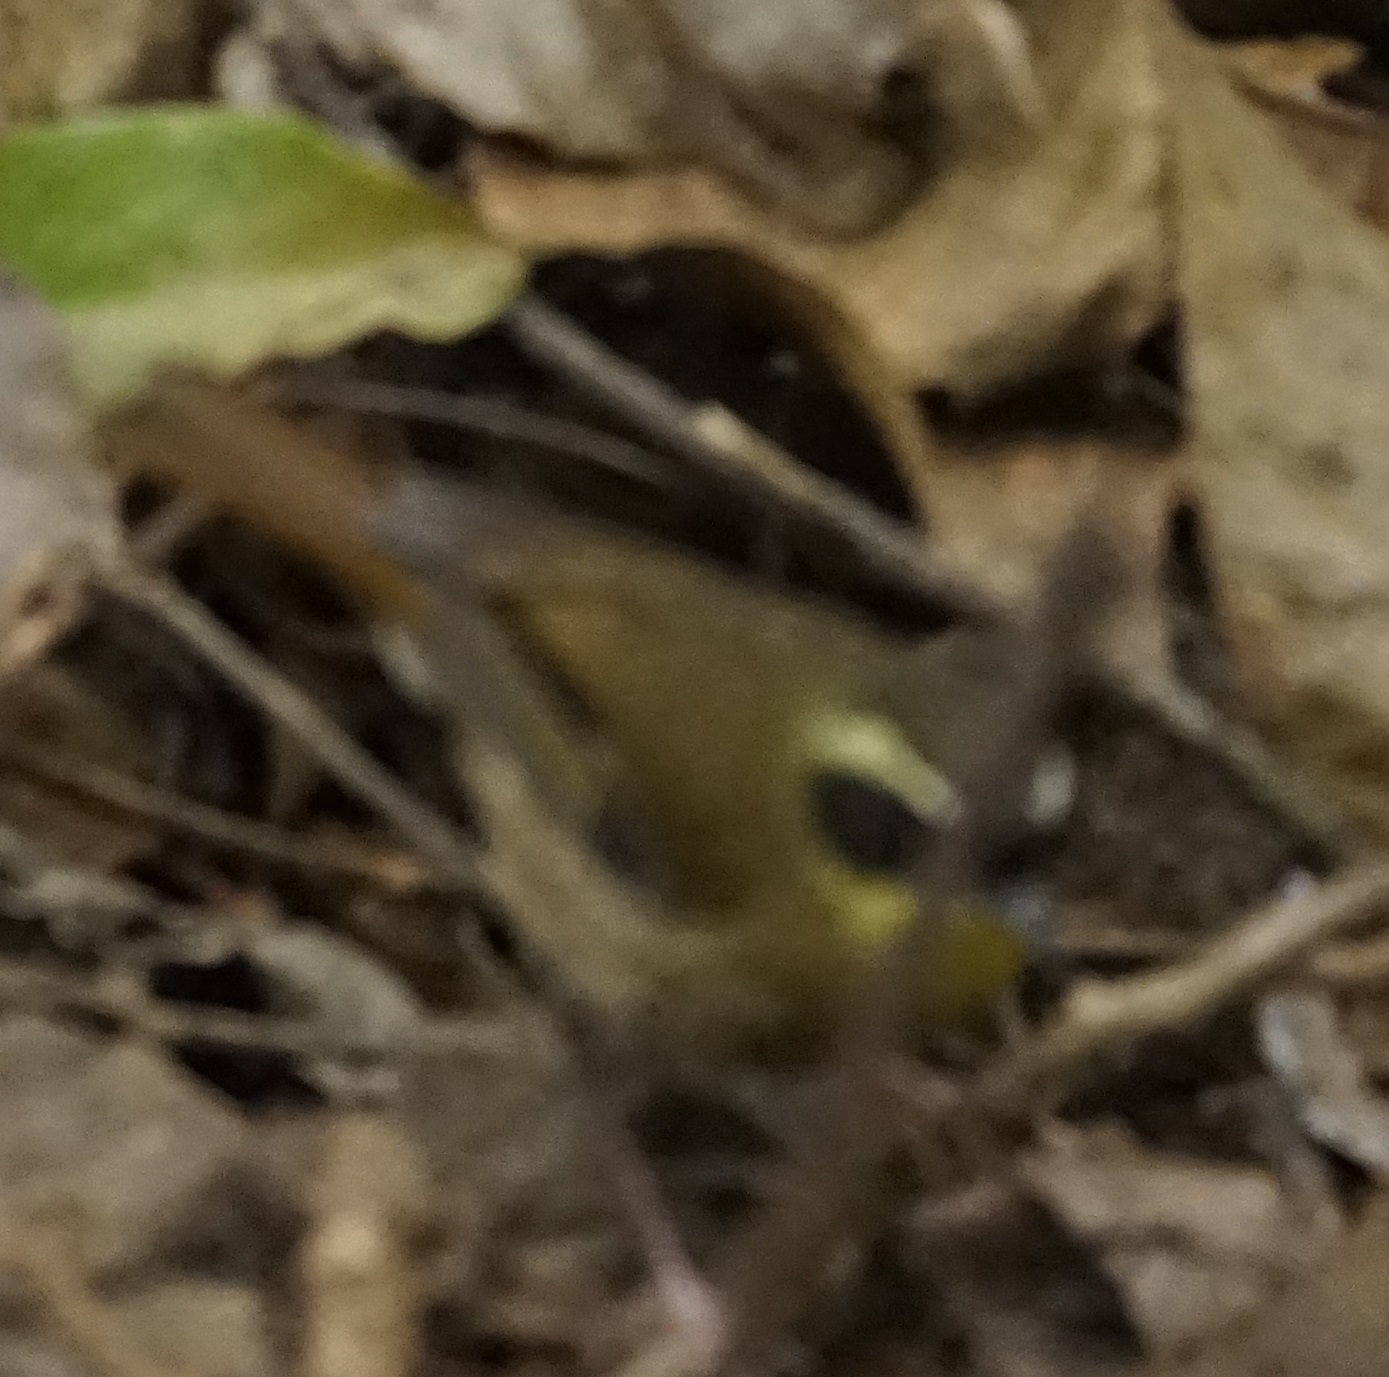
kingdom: Animalia
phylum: Chordata
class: Aves
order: Passeriformes
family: Acanthizidae
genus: Sericornis
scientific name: Sericornis citreogularis
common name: Yellow-throated scrubwren
